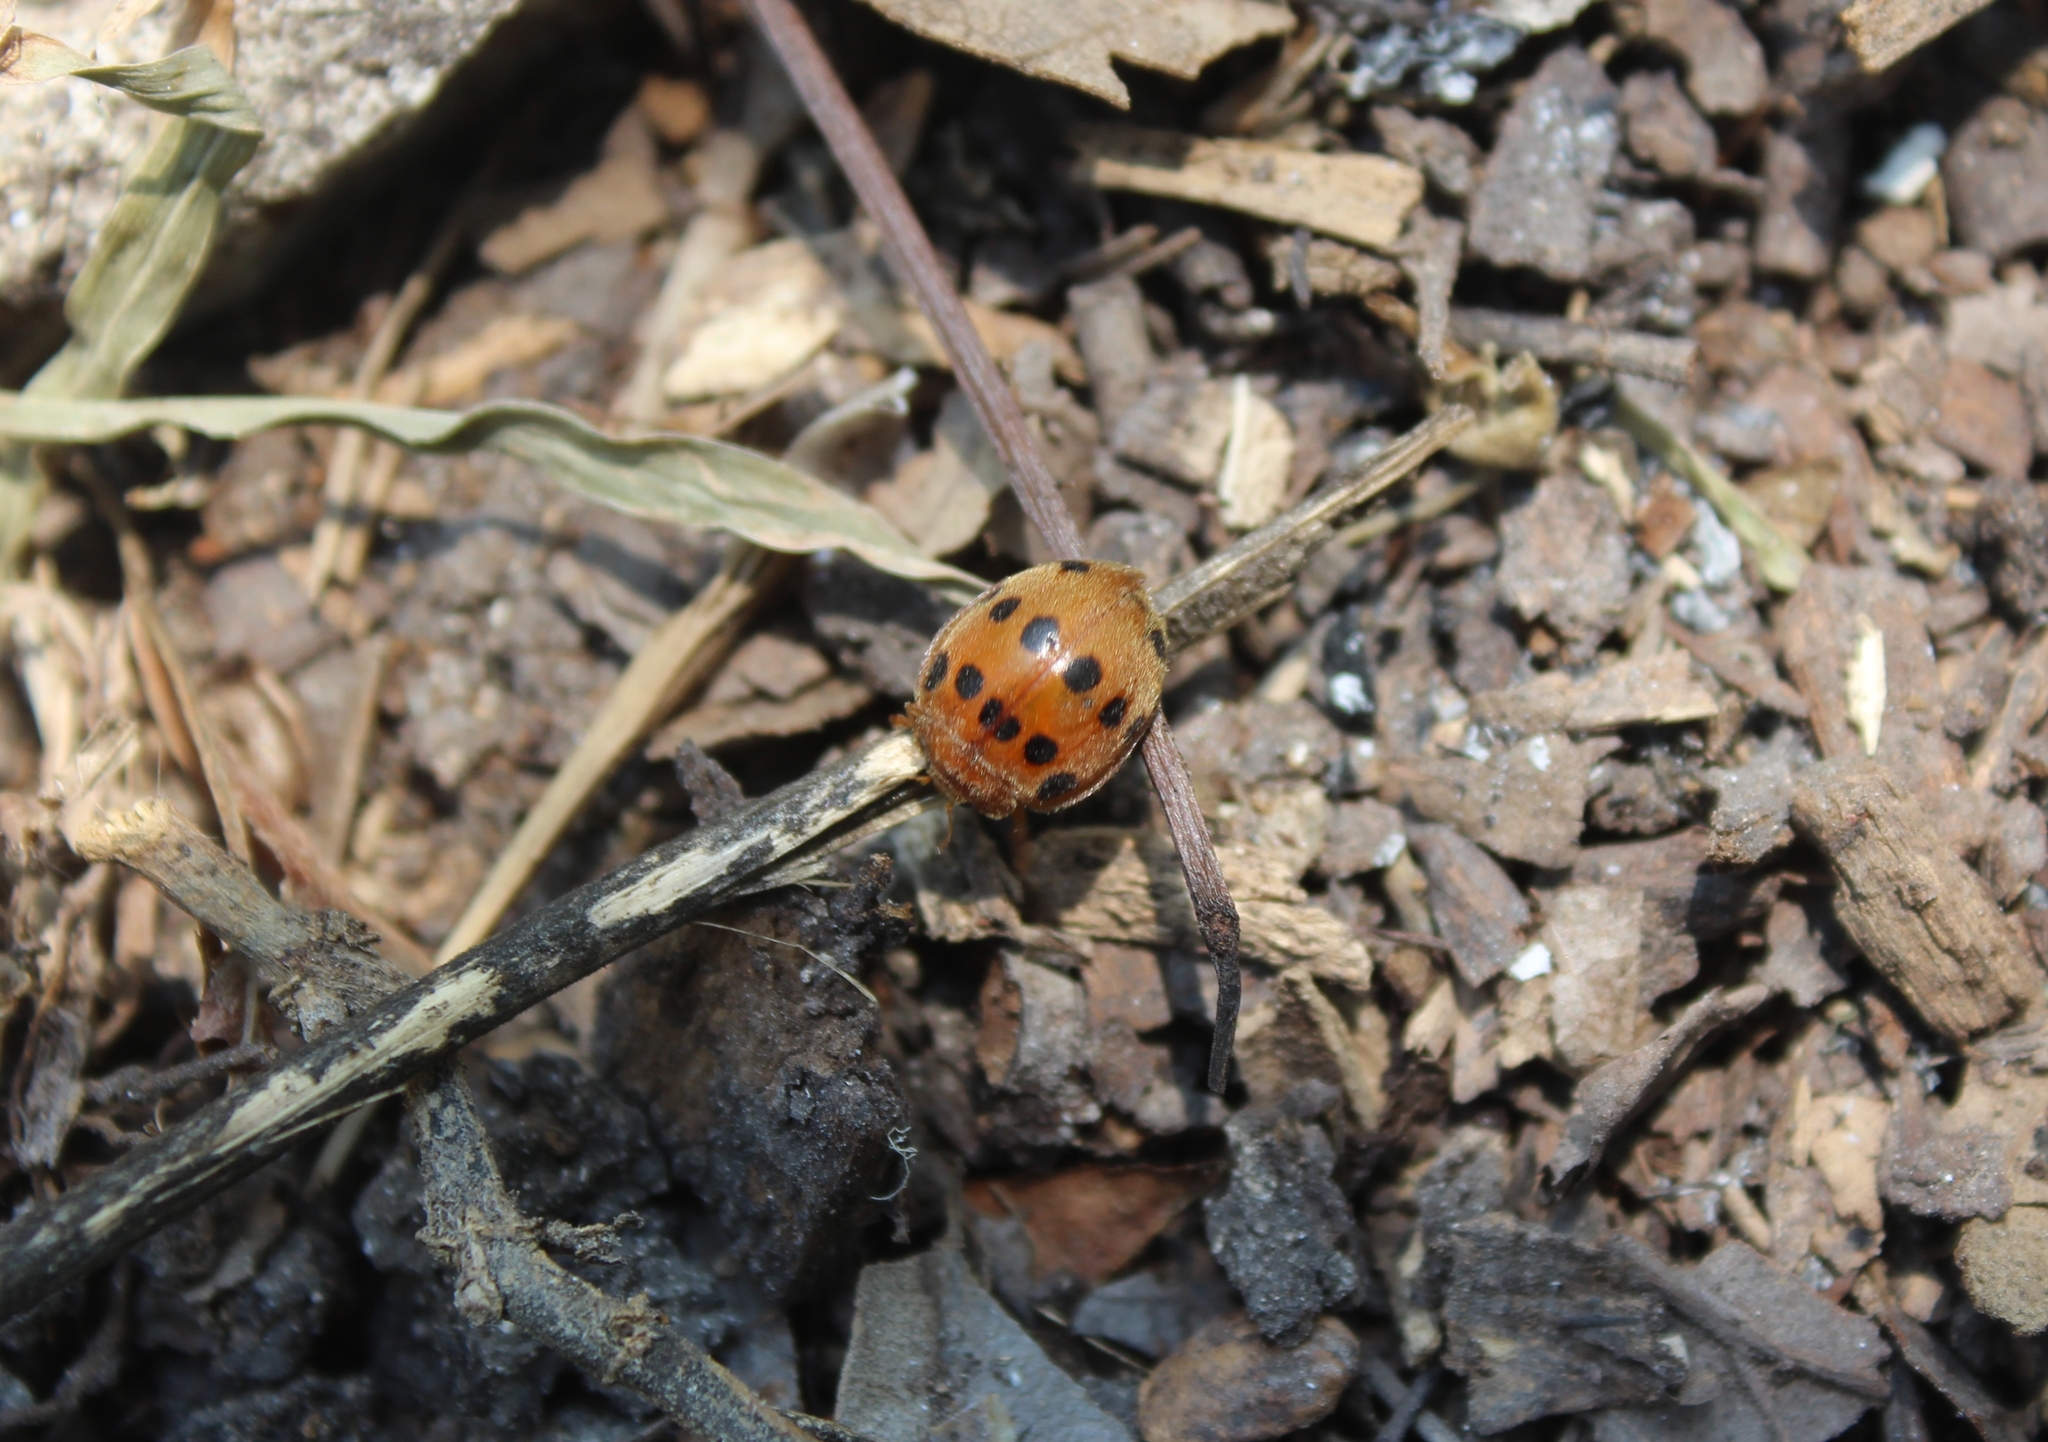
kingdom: Animalia
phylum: Arthropoda
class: Insecta
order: Coleoptera
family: Coccinellidae
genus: Epilachna
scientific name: Epilachna tredecimnotata
